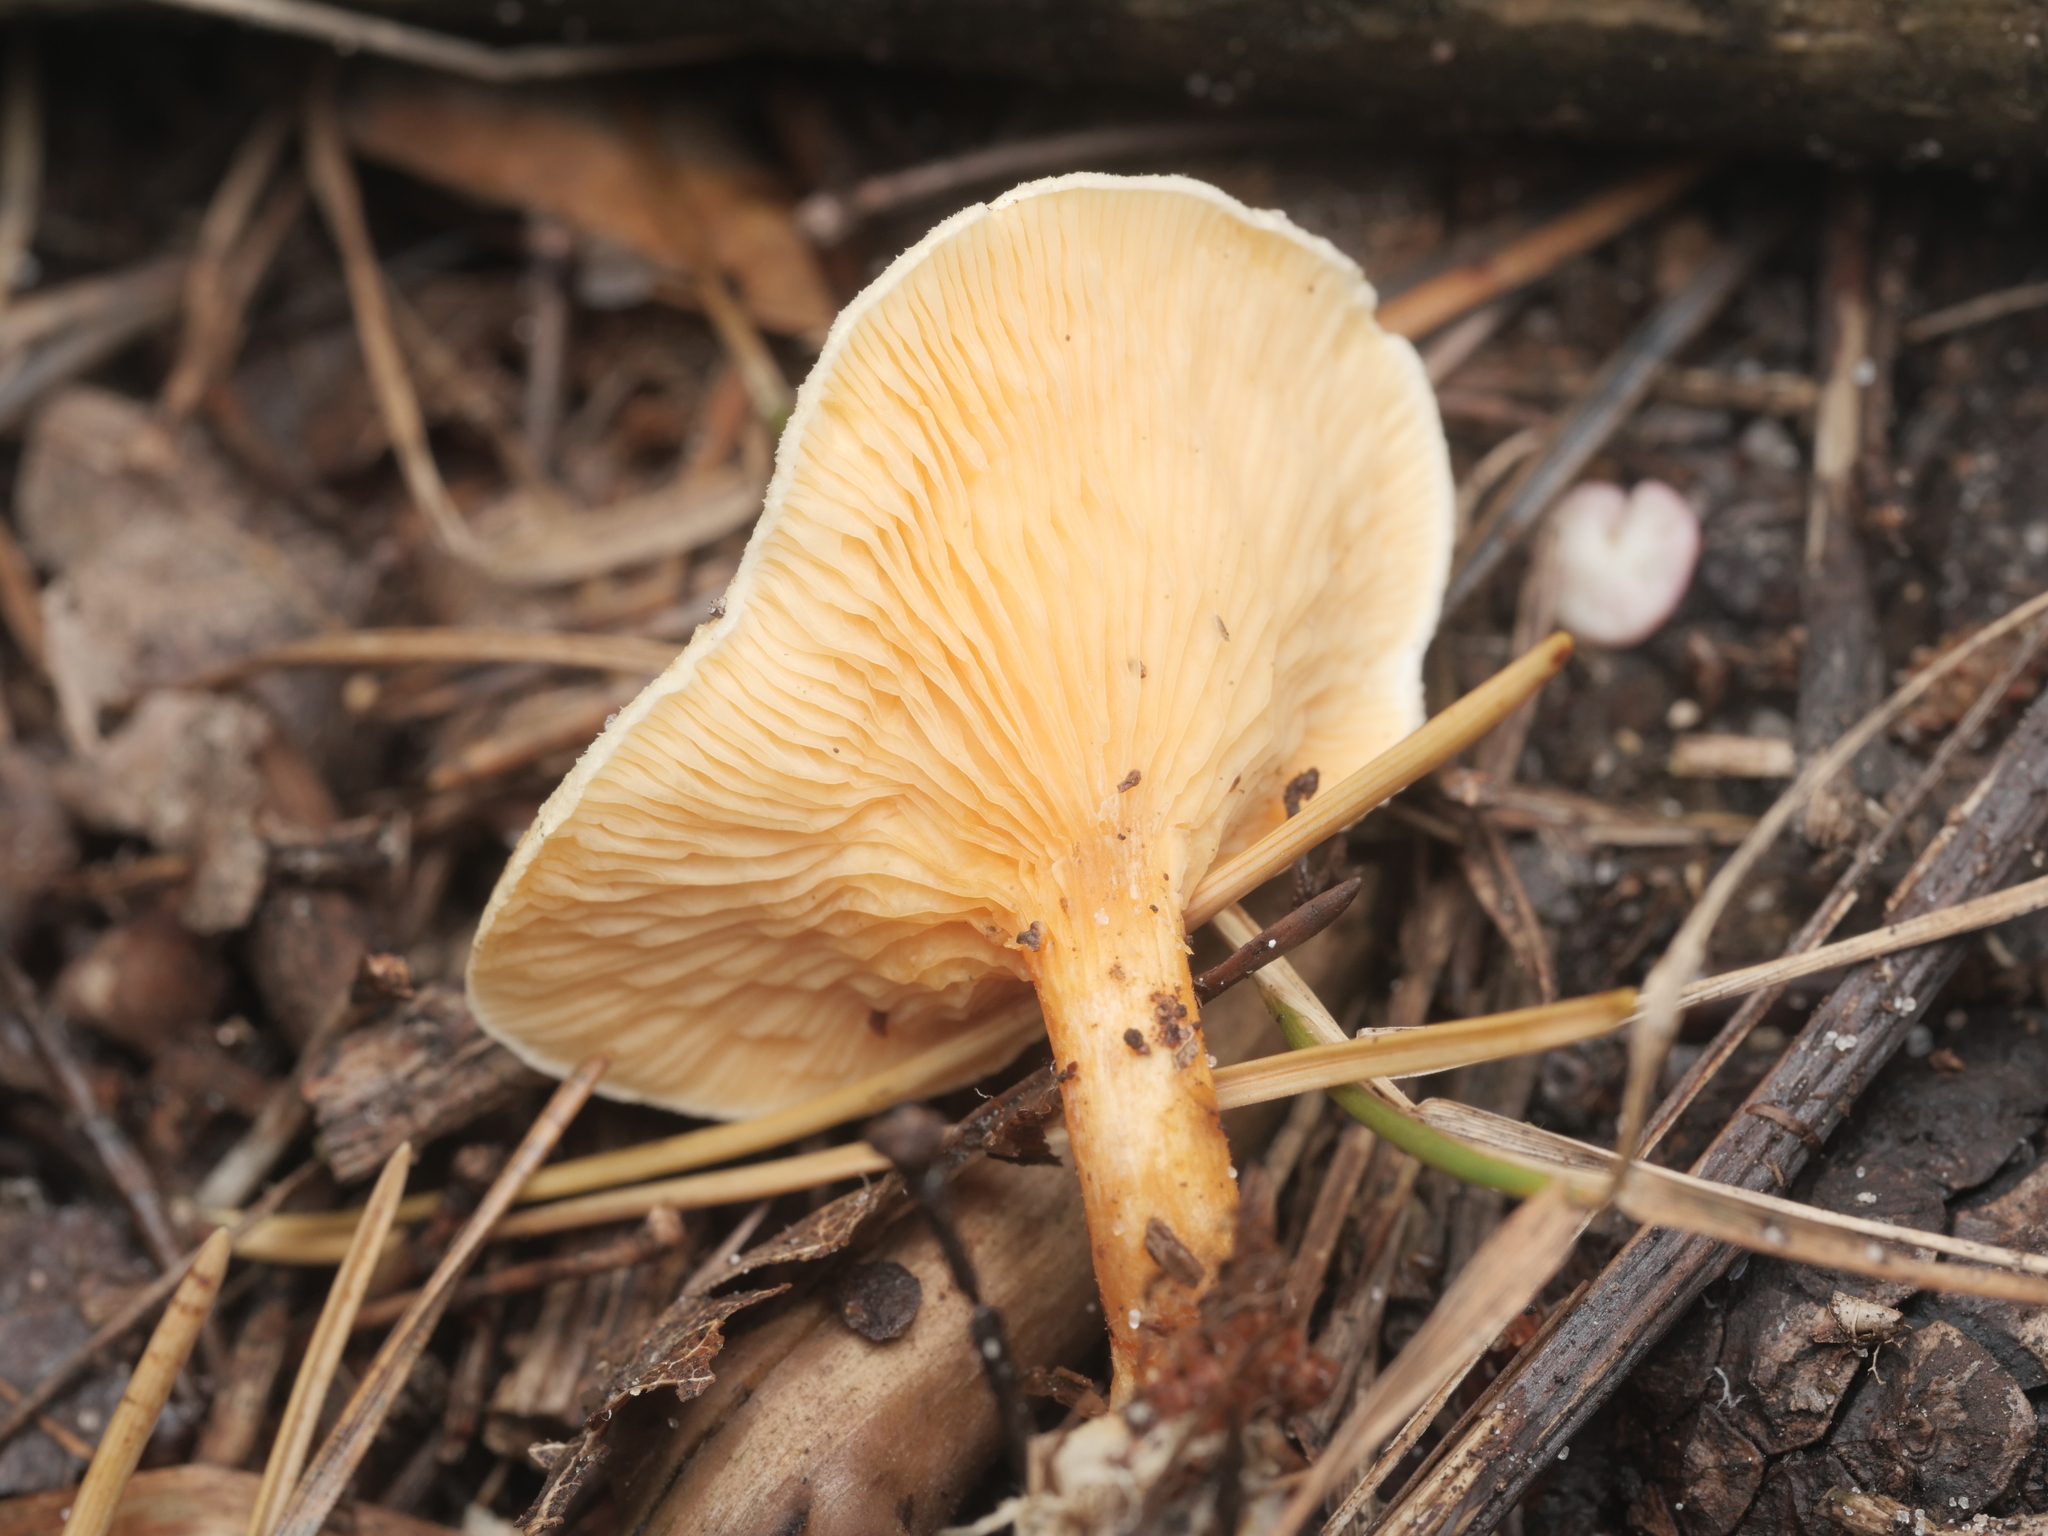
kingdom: Fungi
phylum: Basidiomycota
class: Agaricomycetes
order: Boletales
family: Hygrophoropsidaceae
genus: Hygrophoropsis
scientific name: Hygrophoropsis aurantiaca
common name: False chanterelle
